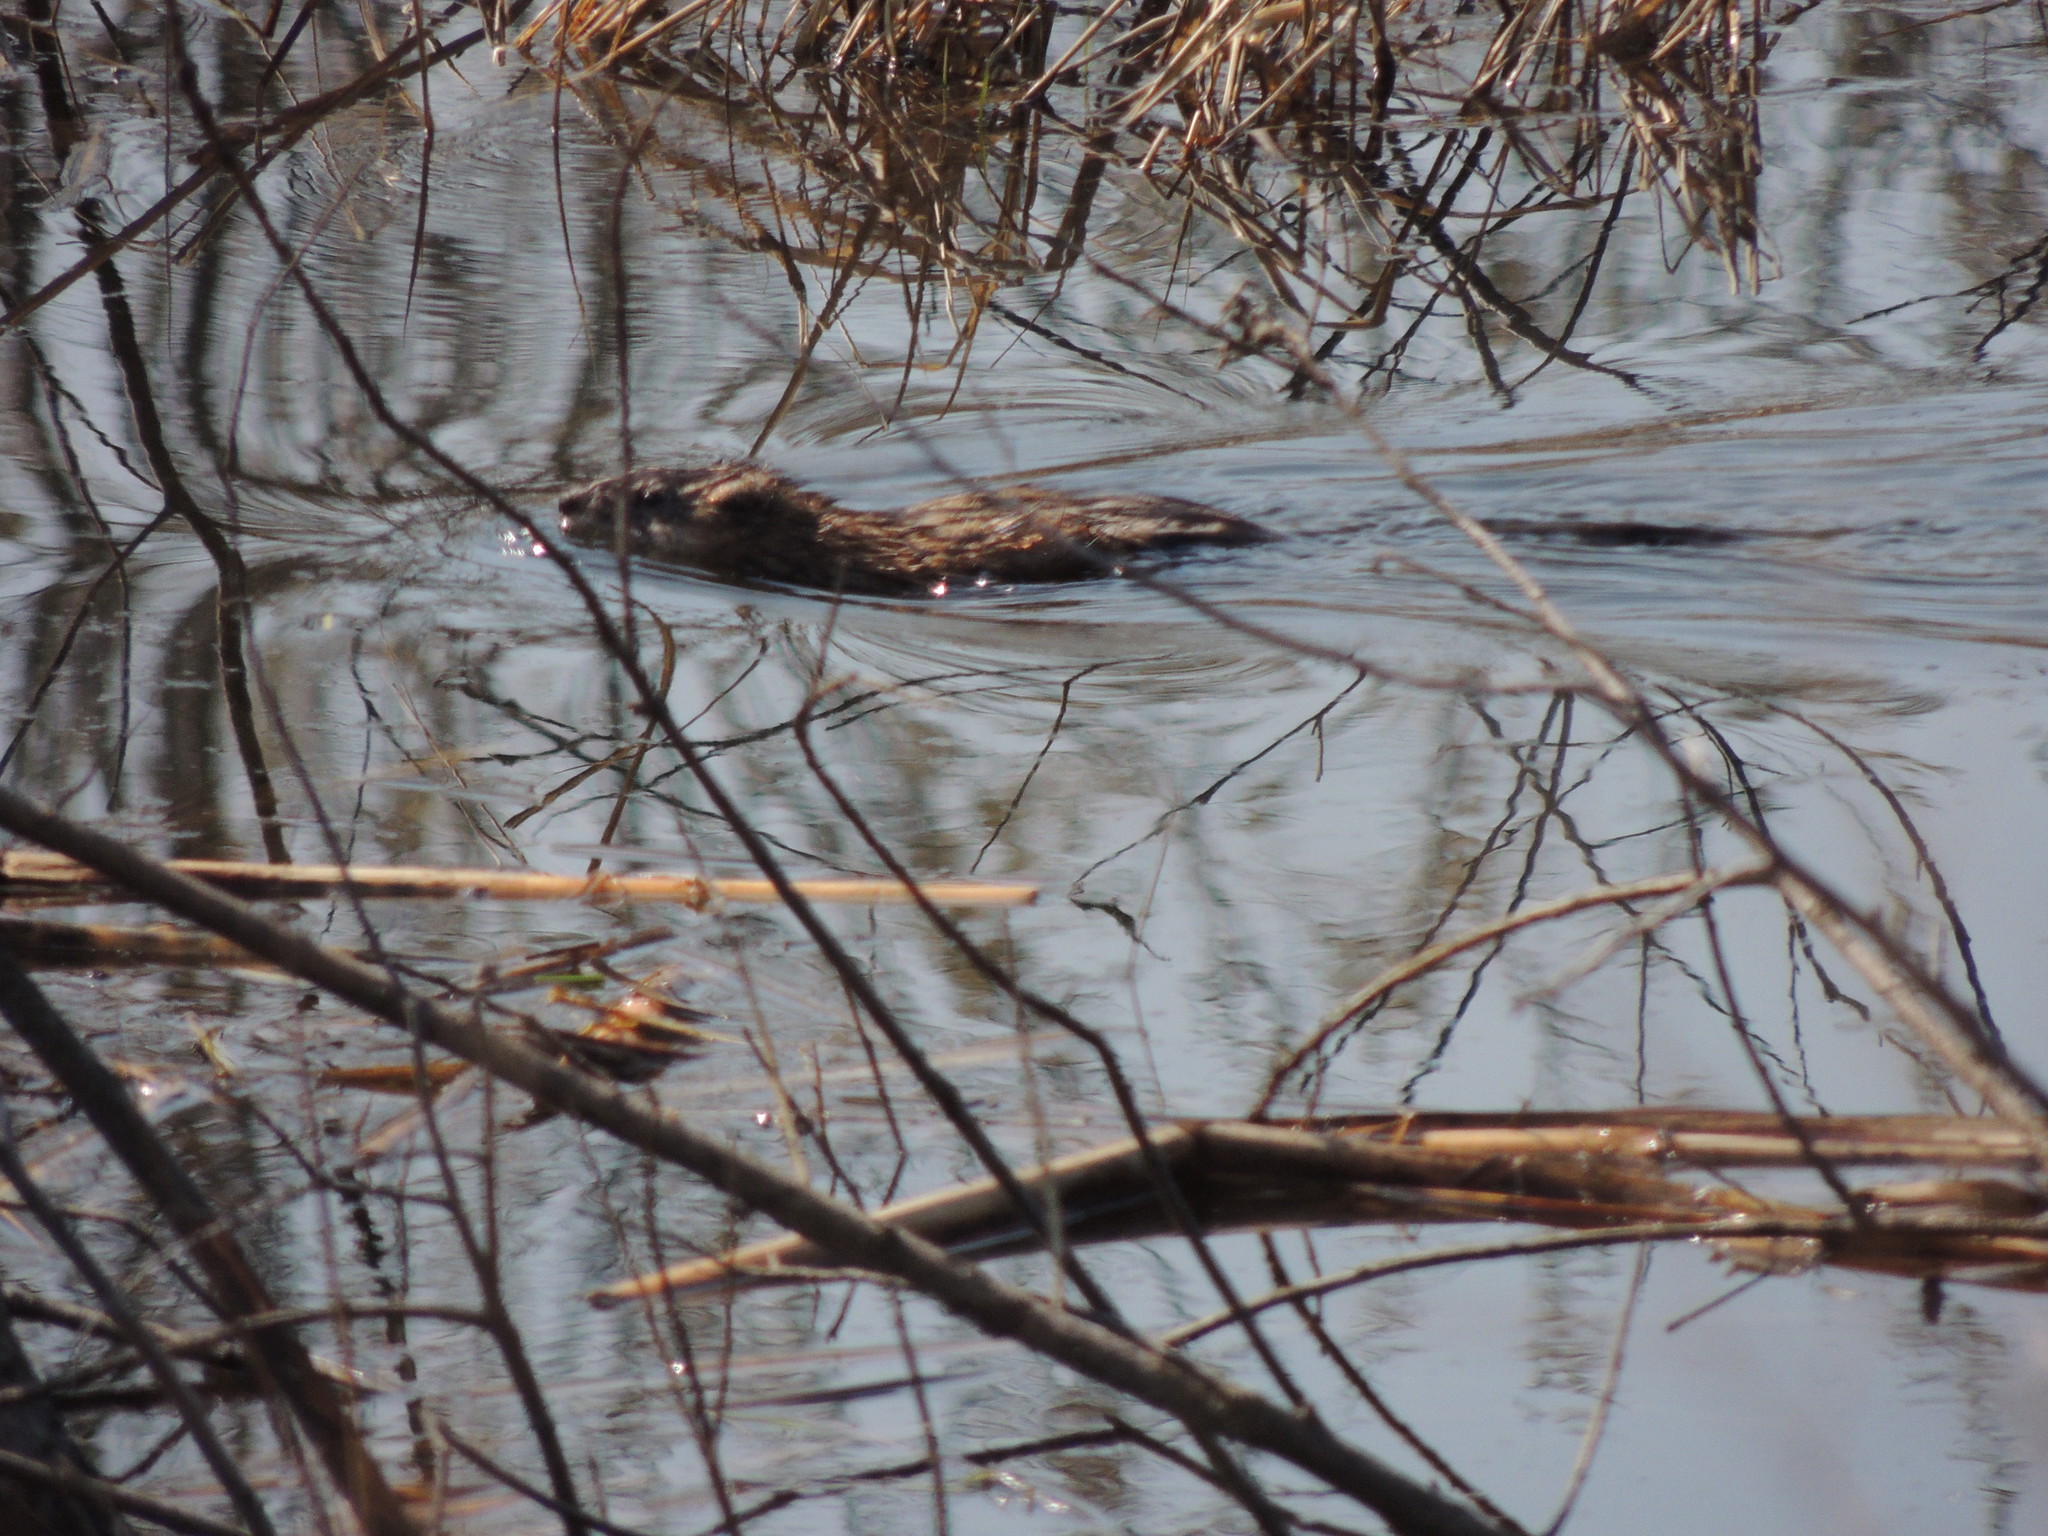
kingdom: Animalia
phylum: Chordata
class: Mammalia
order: Rodentia
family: Cricetidae
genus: Ondatra
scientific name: Ondatra zibethicus
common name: Muskrat
